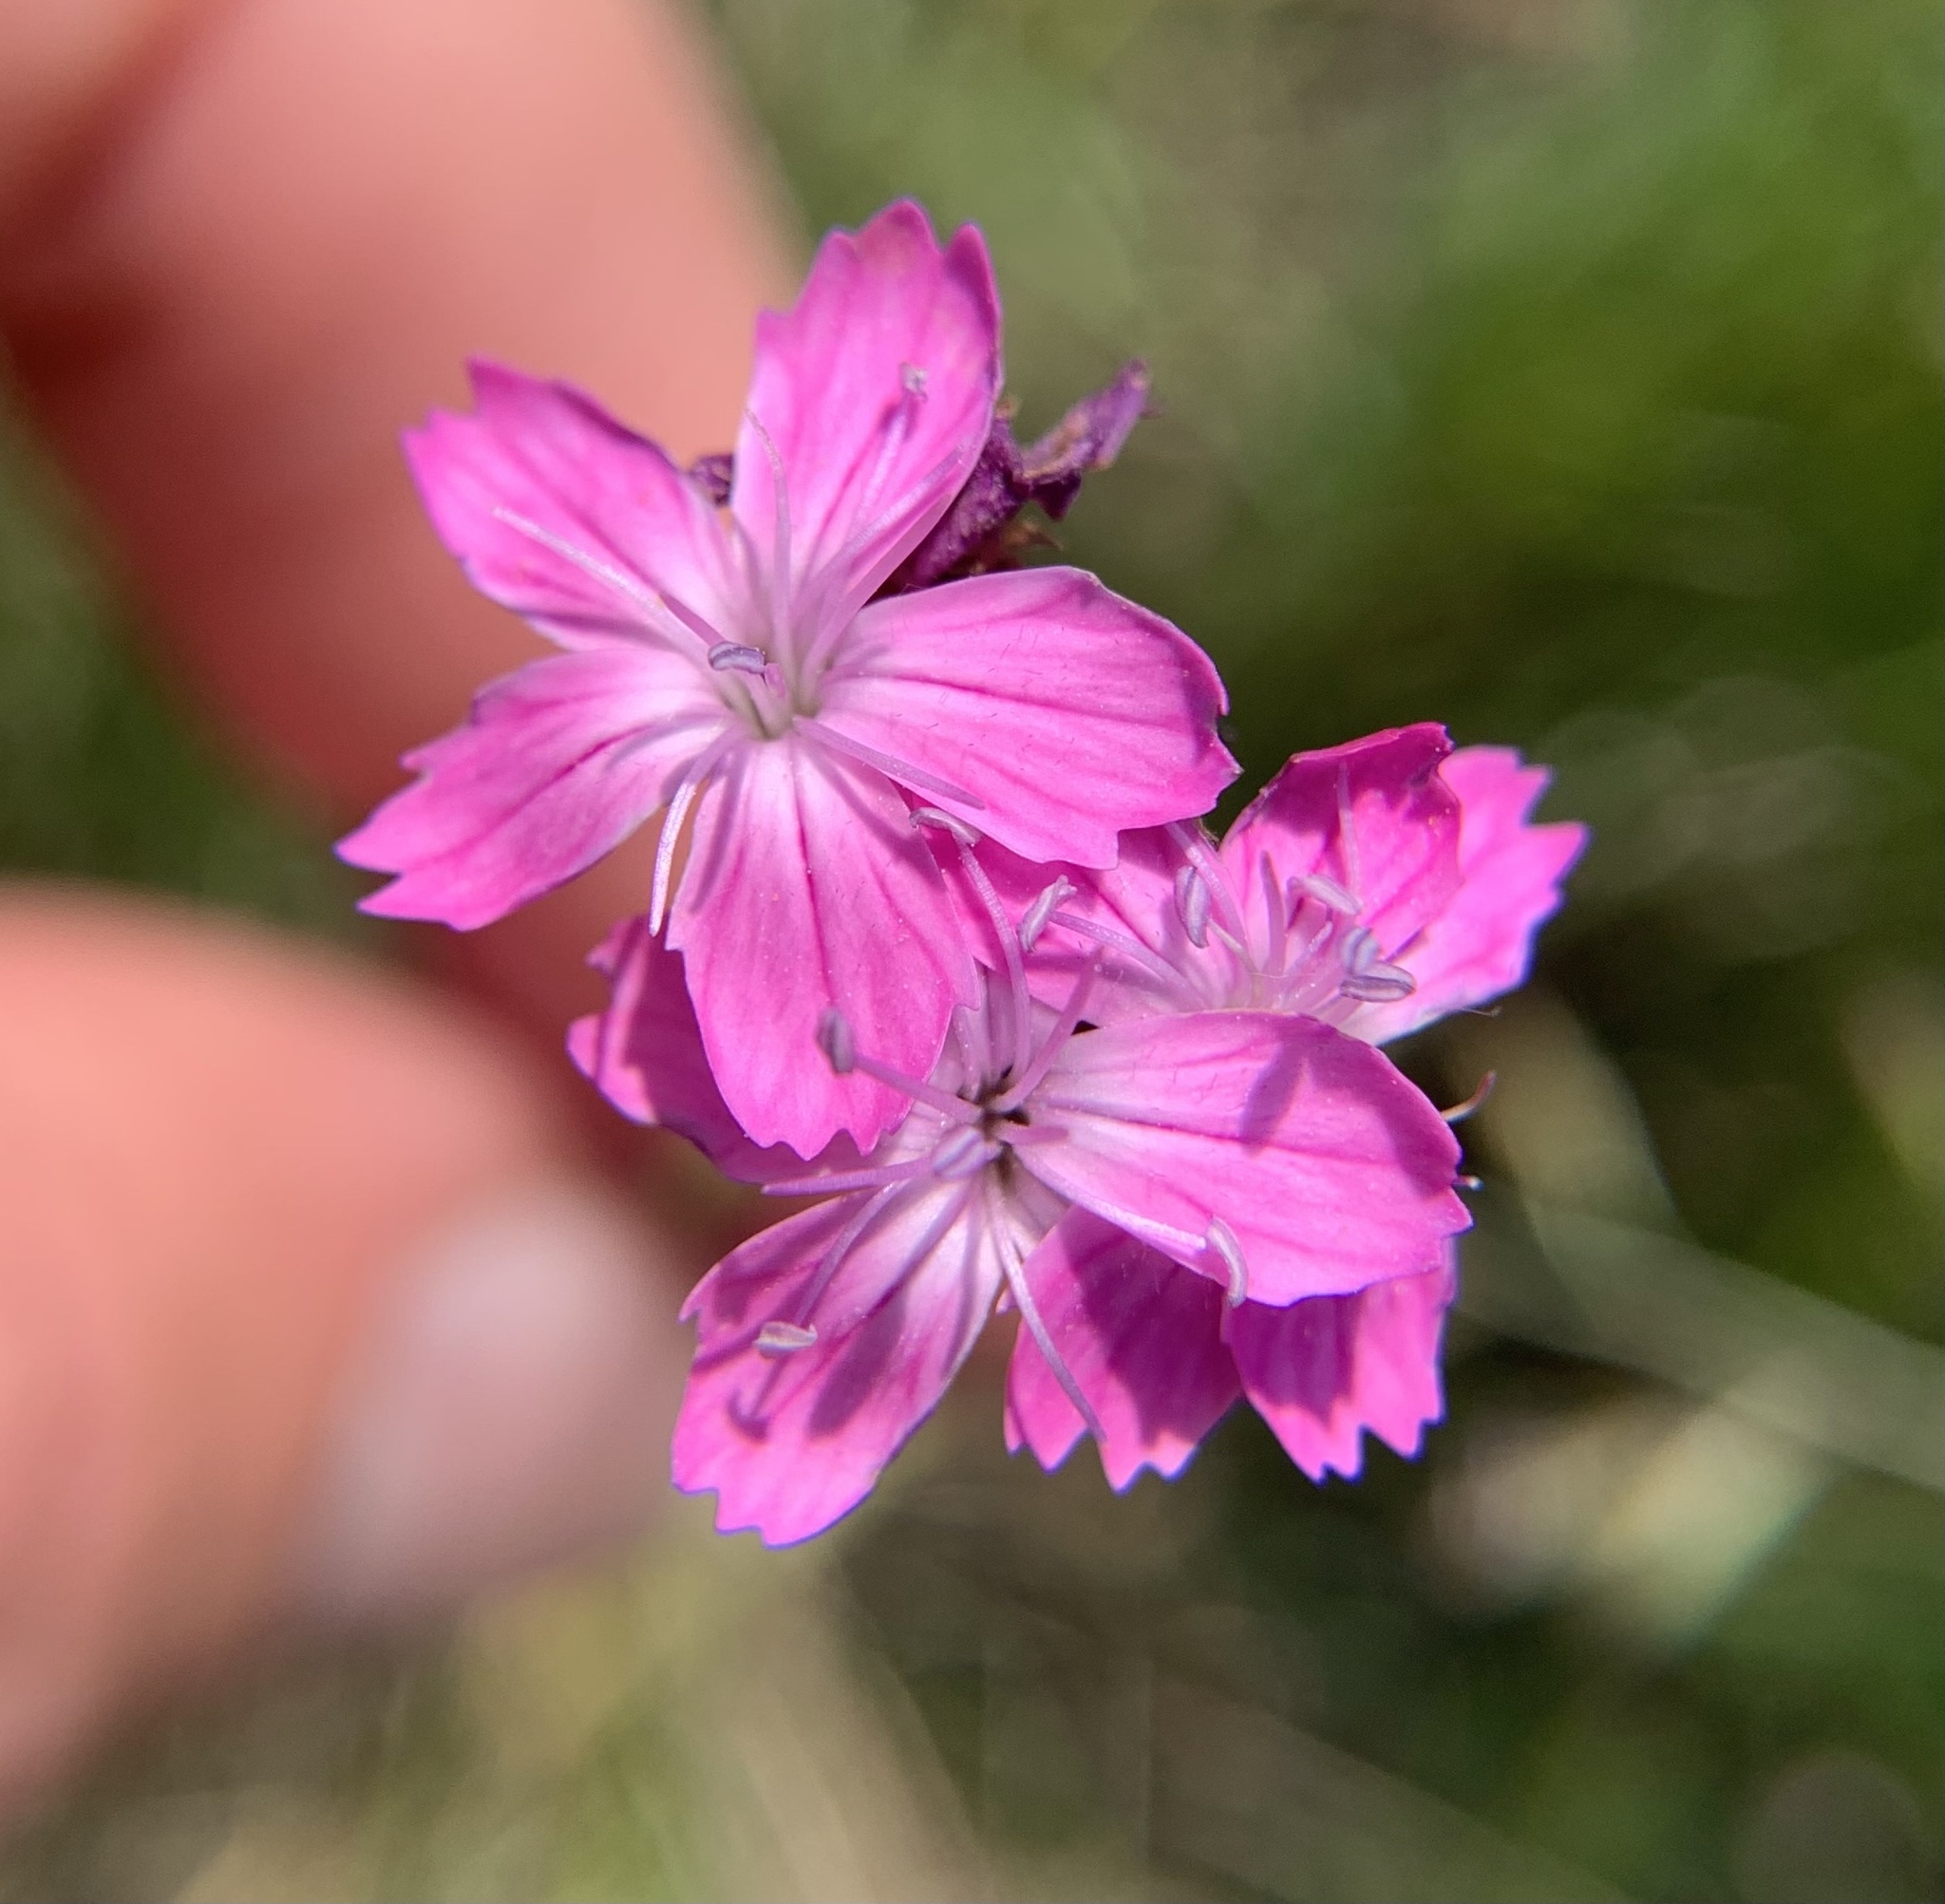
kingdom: Plantae
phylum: Tracheophyta
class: Magnoliopsida
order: Caryophyllales
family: Caryophyllaceae
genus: Dianthus
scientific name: Dianthus pontederae
